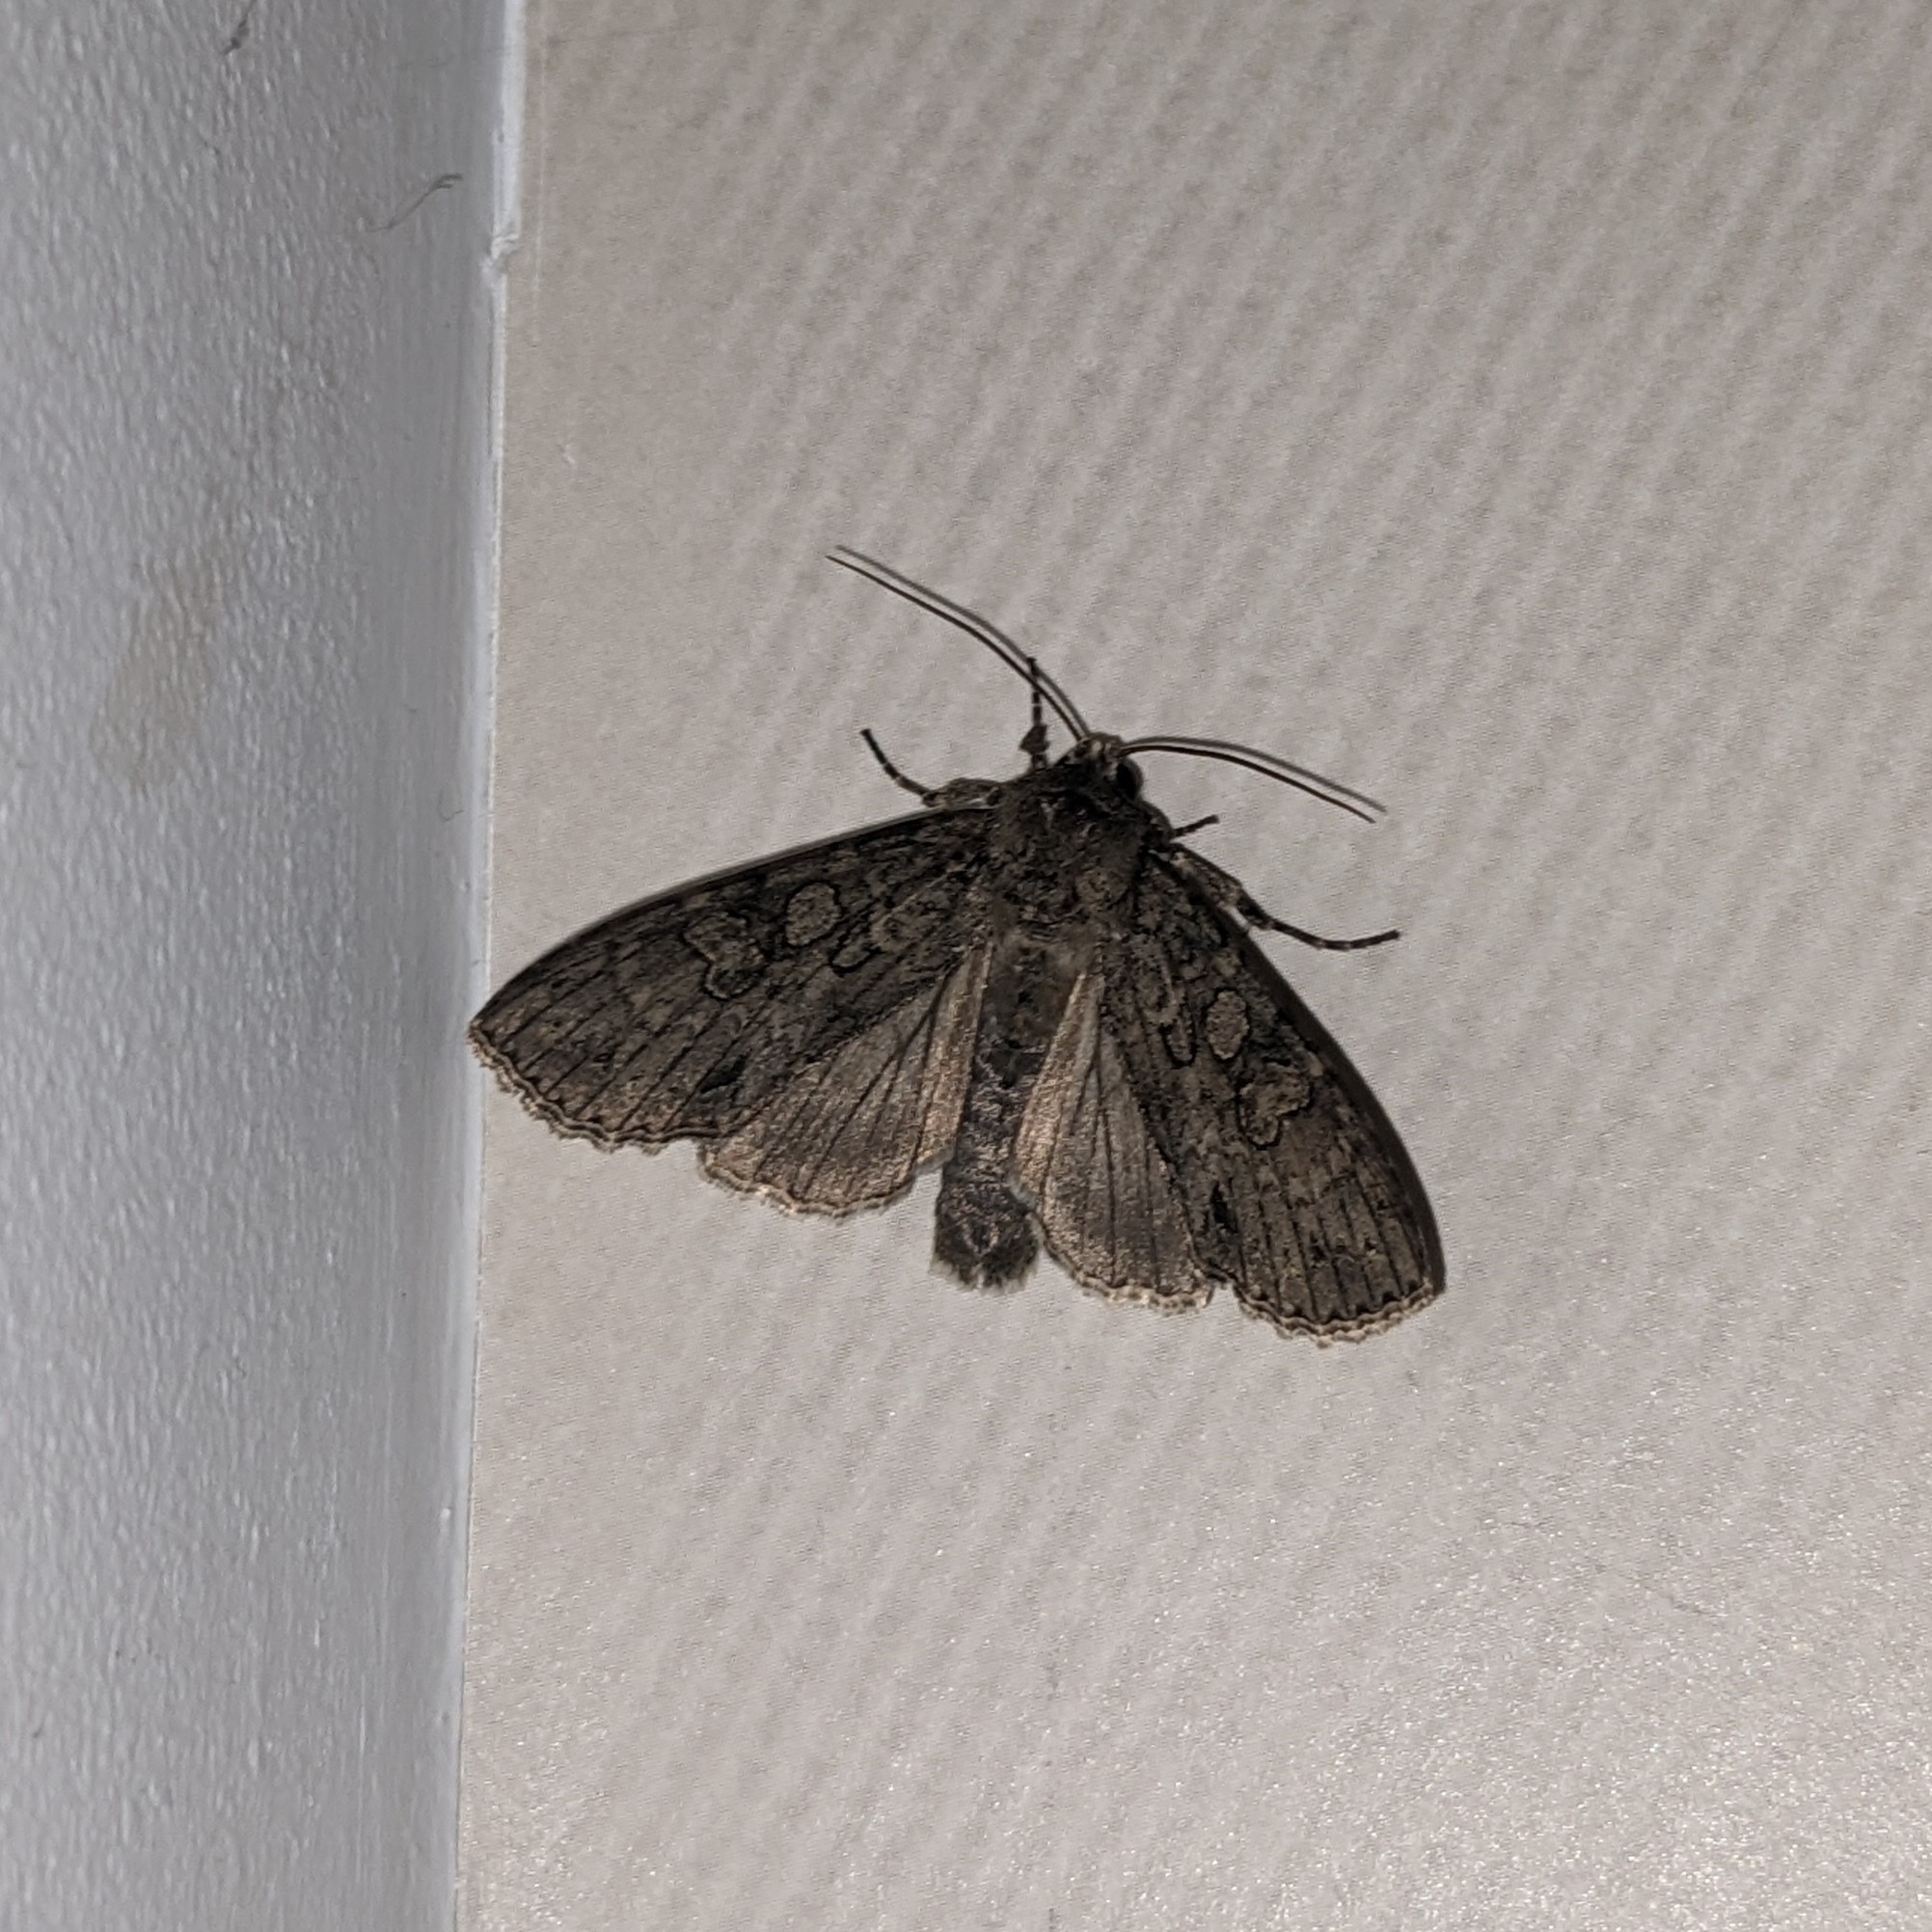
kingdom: Animalia
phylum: Arthropoda
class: Insecta
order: Lepidoptera
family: Noctuidae
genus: Polia
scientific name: Polia nebulosa
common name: Grey arches
